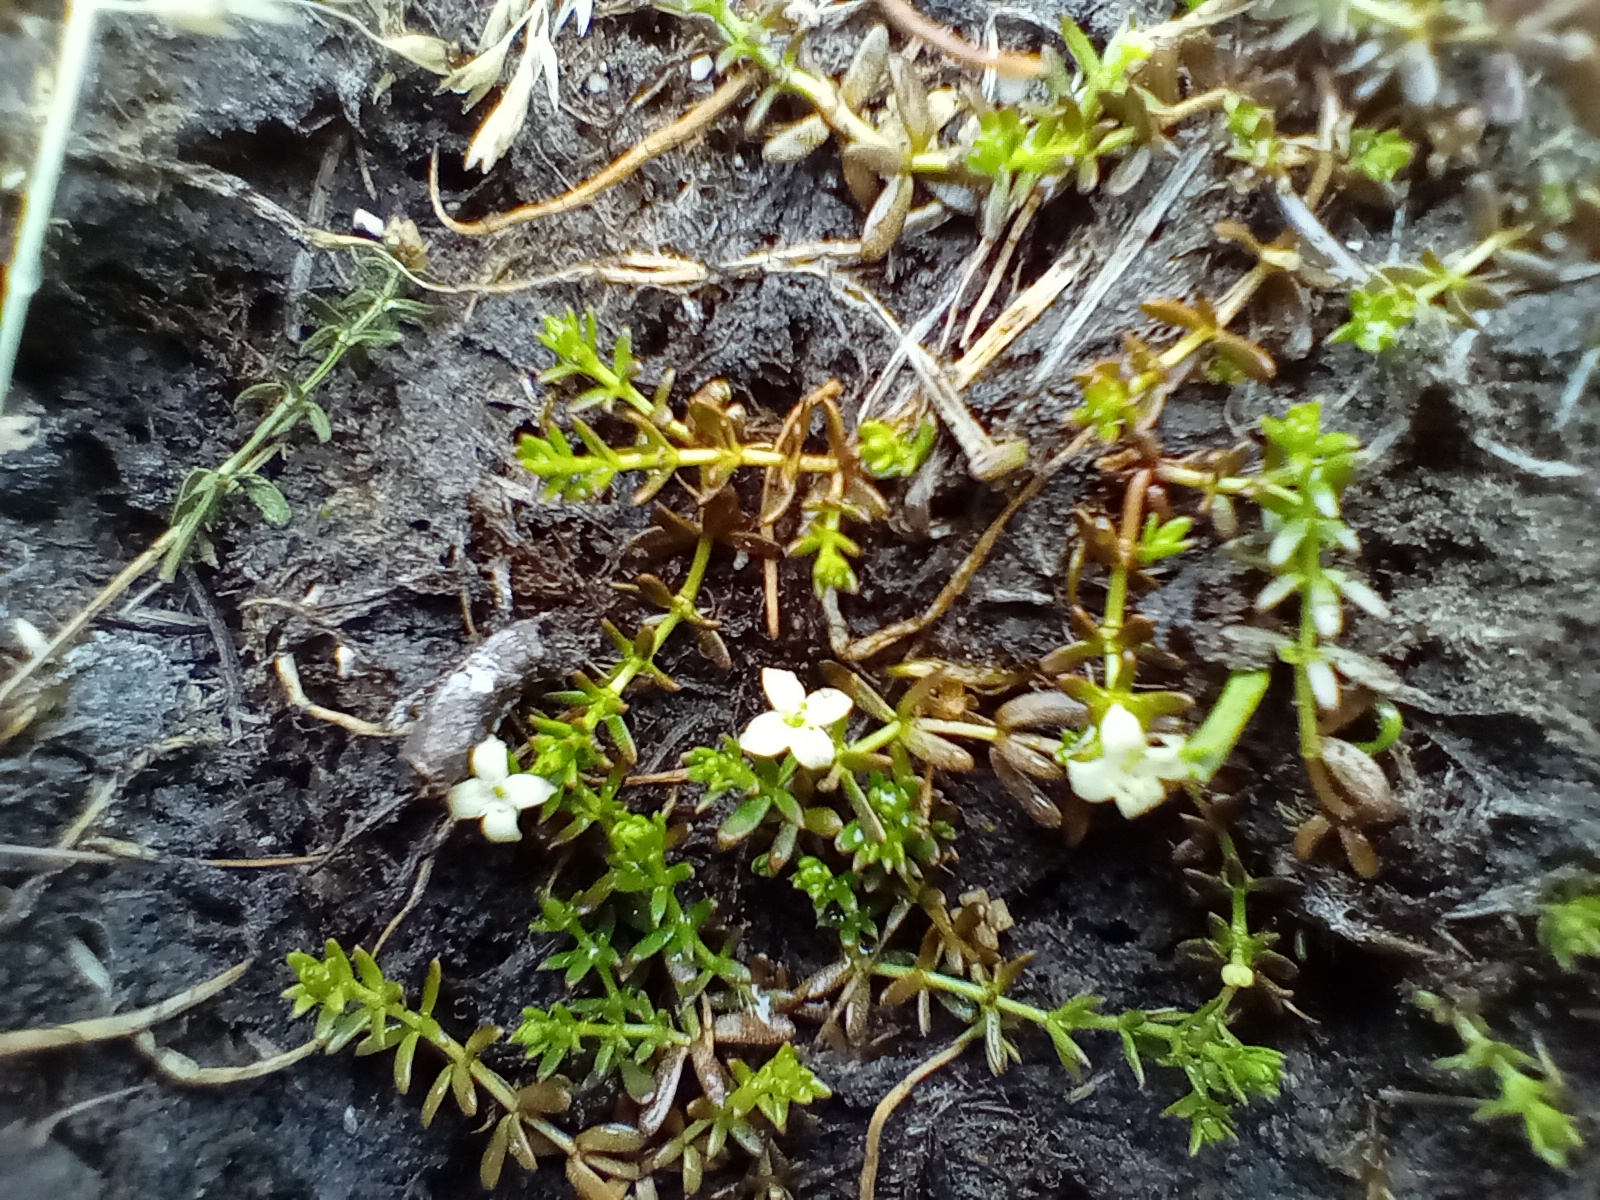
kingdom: Plantae
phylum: Tracheophyta
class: Magnoliopsida
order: Gentianales
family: Rubiaceae
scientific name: Rubiaceae
